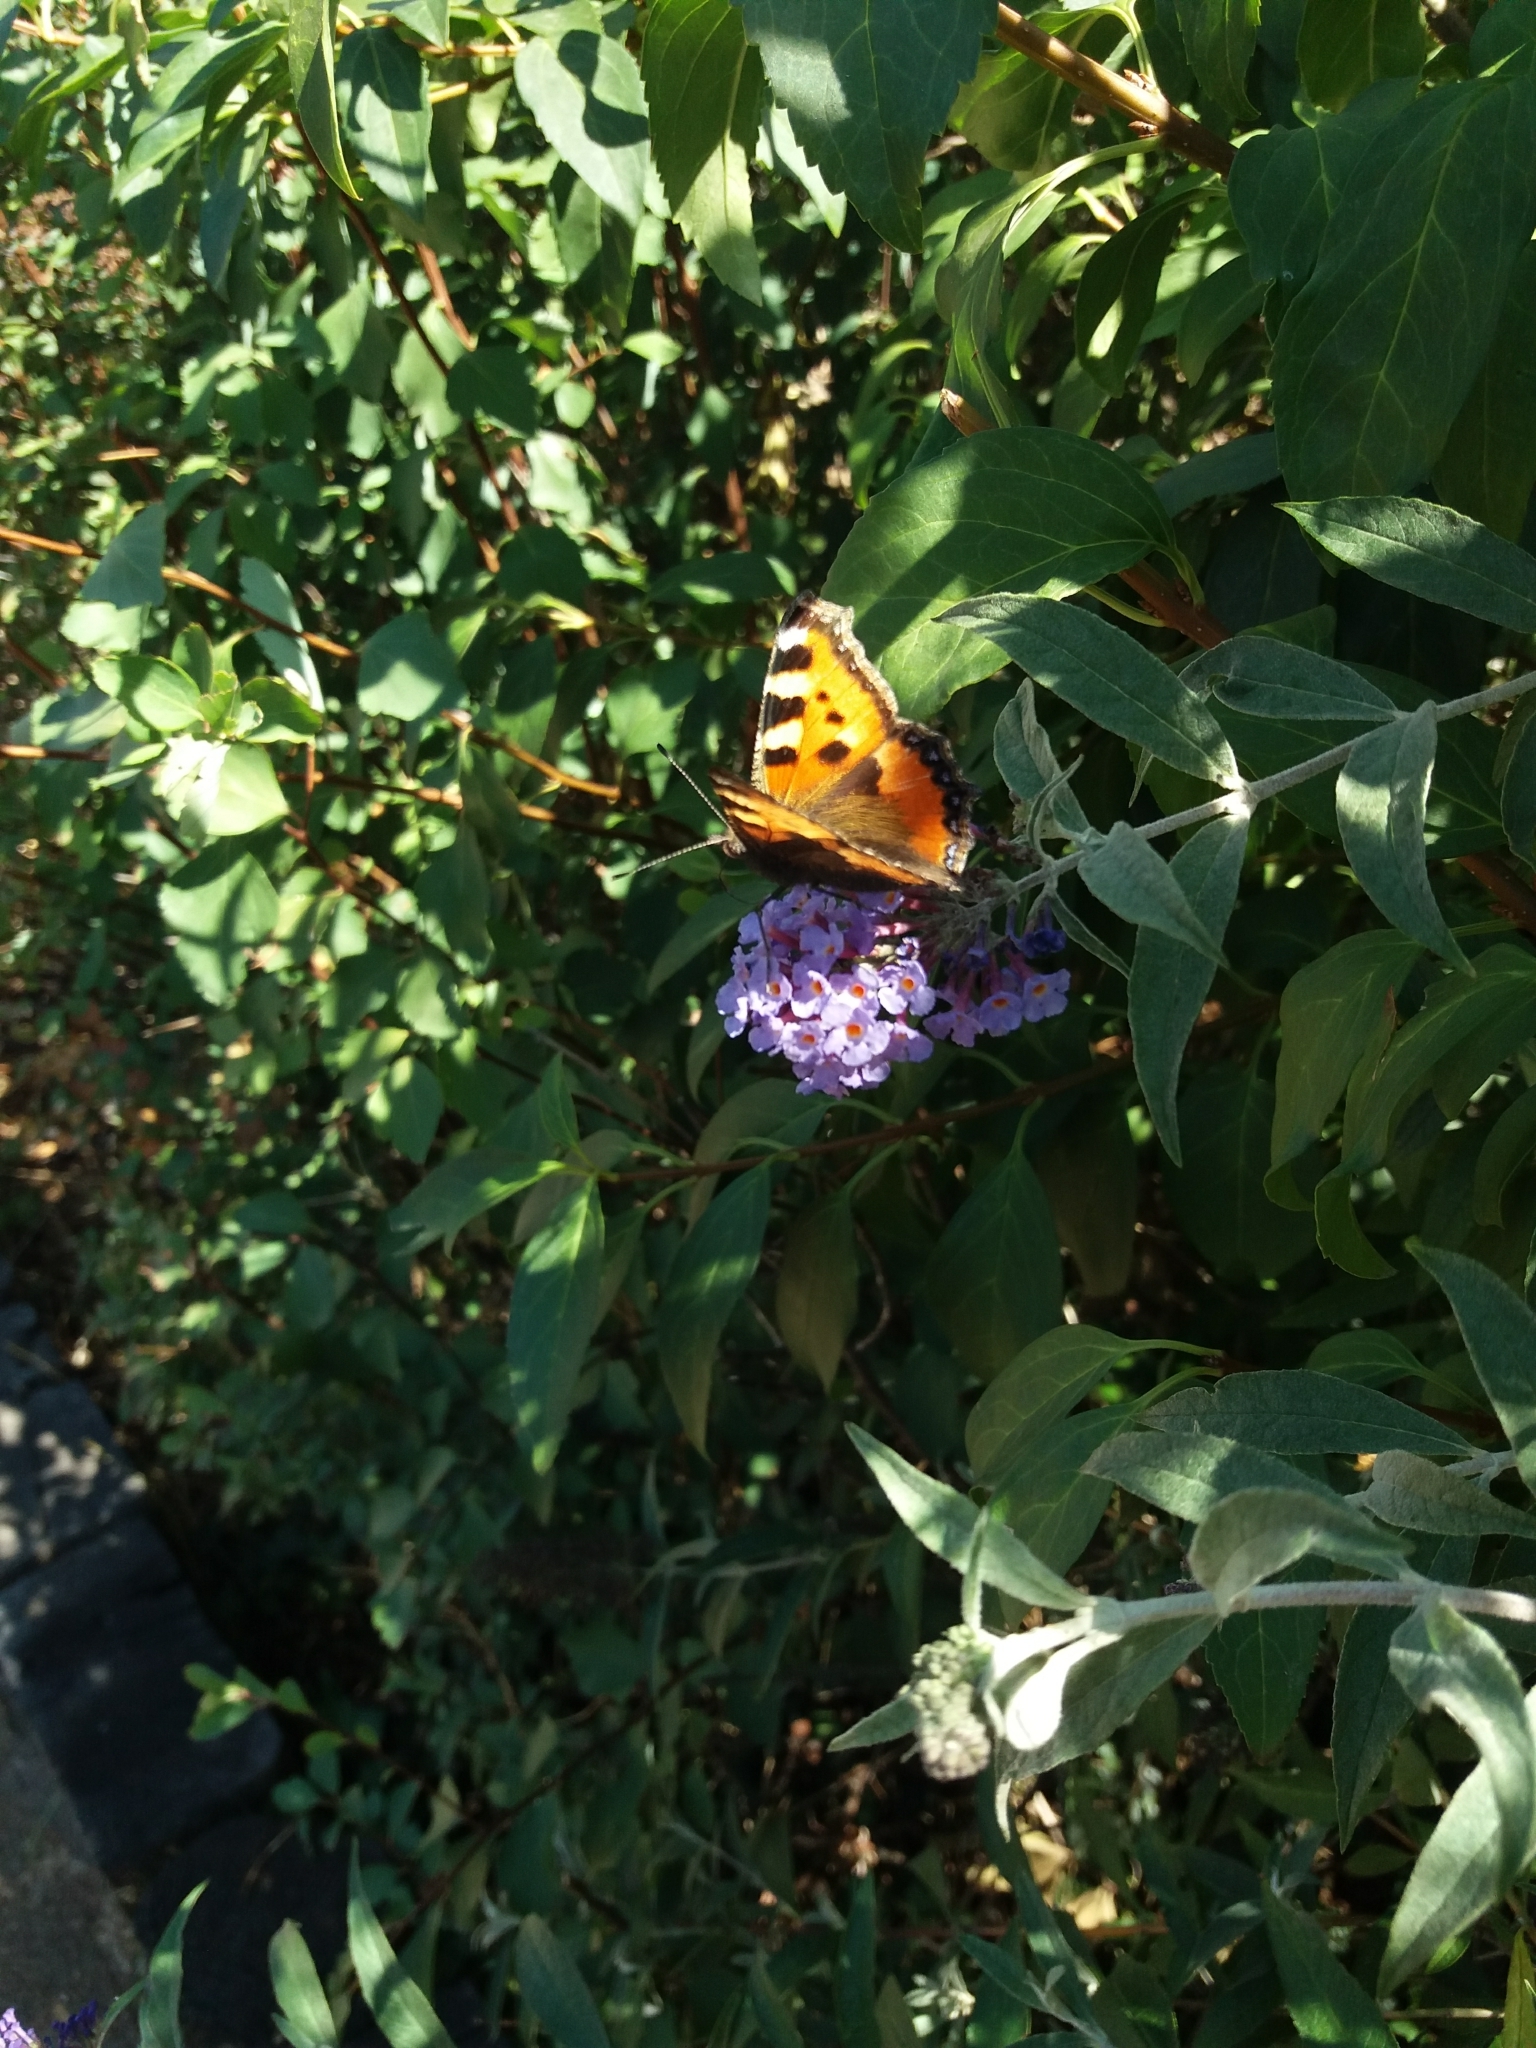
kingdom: Animalia
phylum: Arthropoda
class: Insecta
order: Lepidoptera
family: Nymphalidae
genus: Aglais
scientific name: Aglais urticae
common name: Small tortoiseshell
